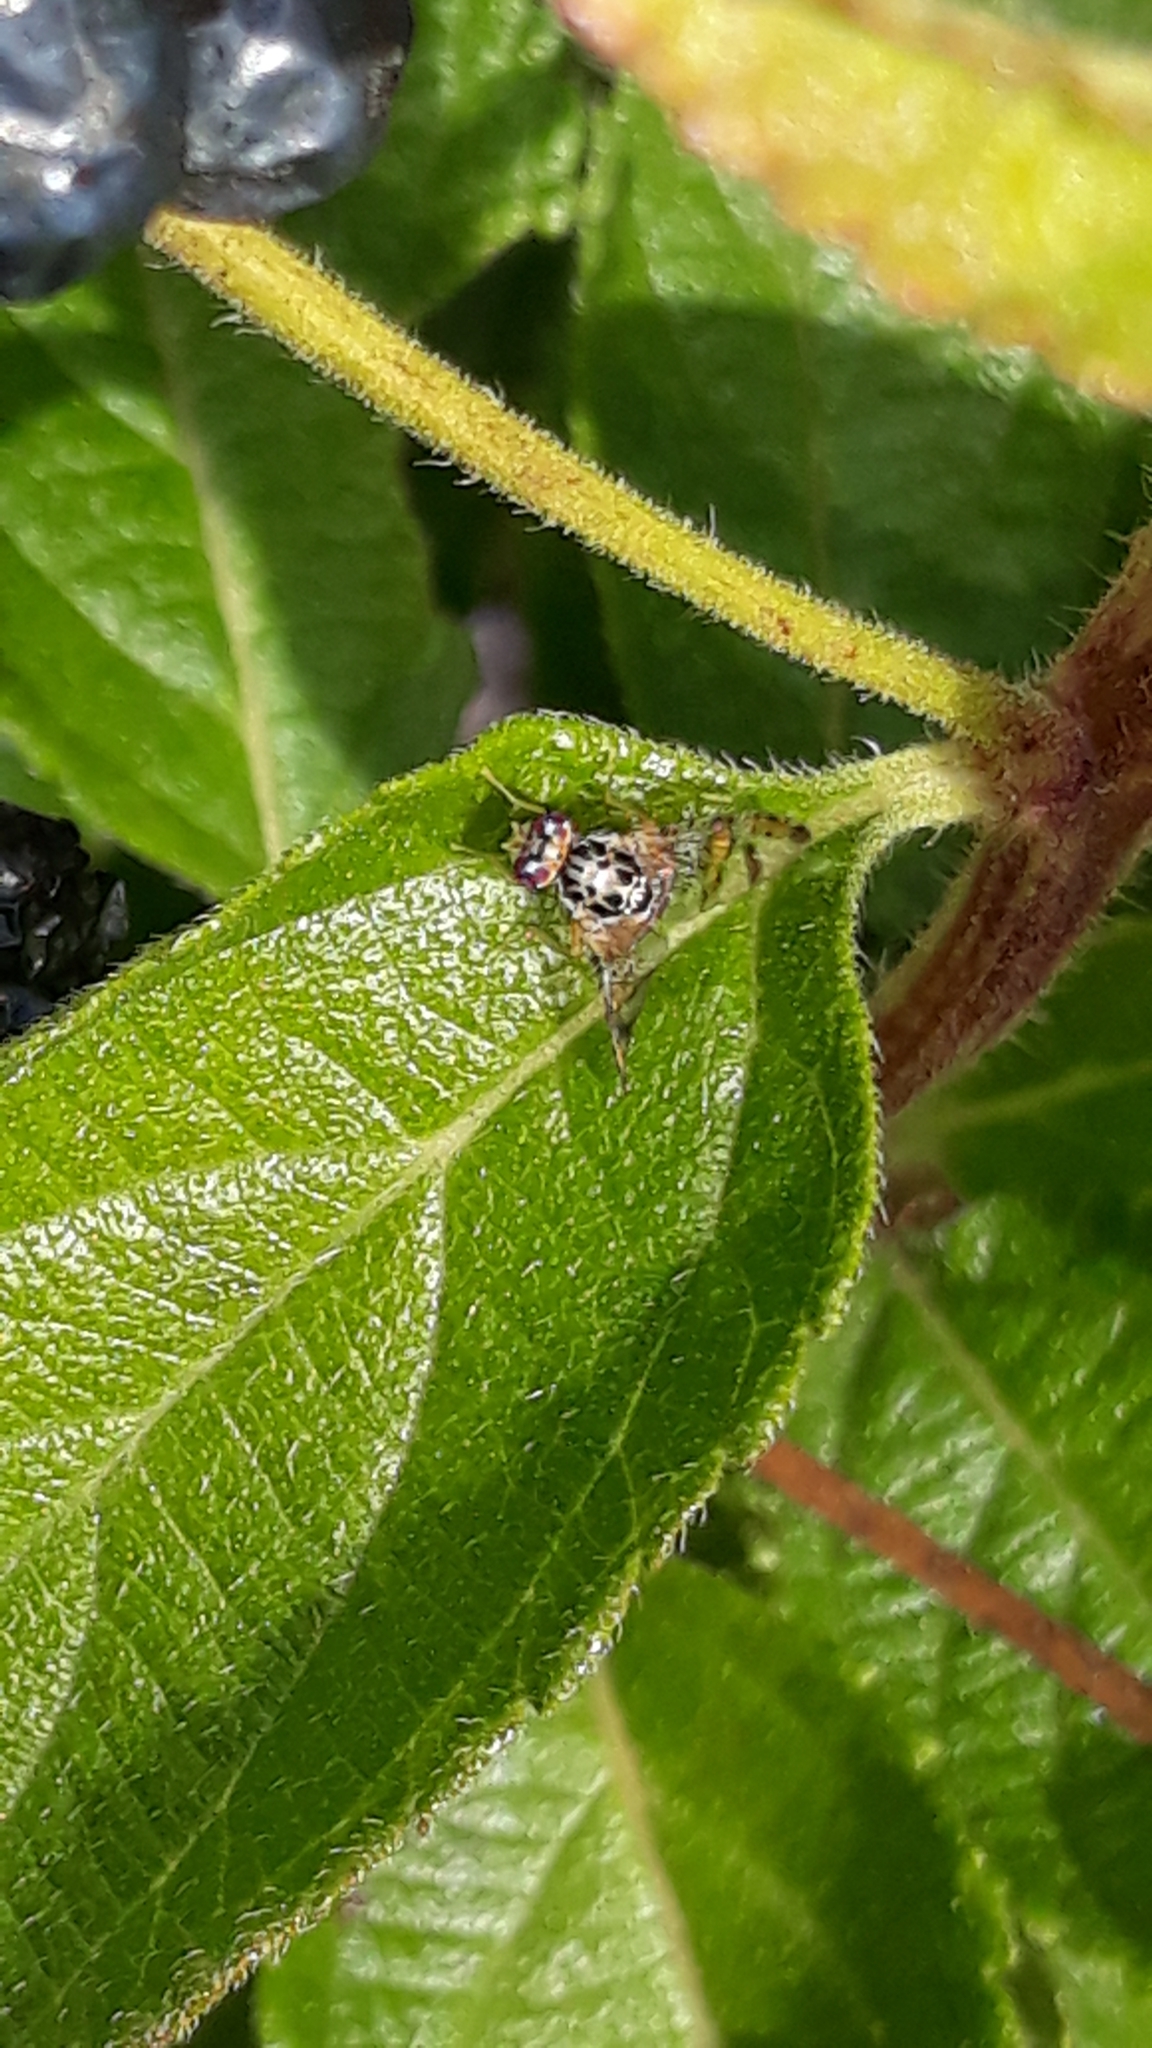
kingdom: Animalia
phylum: Arthropoda
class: Insecta
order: Diptera
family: Tephritidae
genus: Ceratitis
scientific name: Ceratitis capitata
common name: Mediterranean fruit fly
